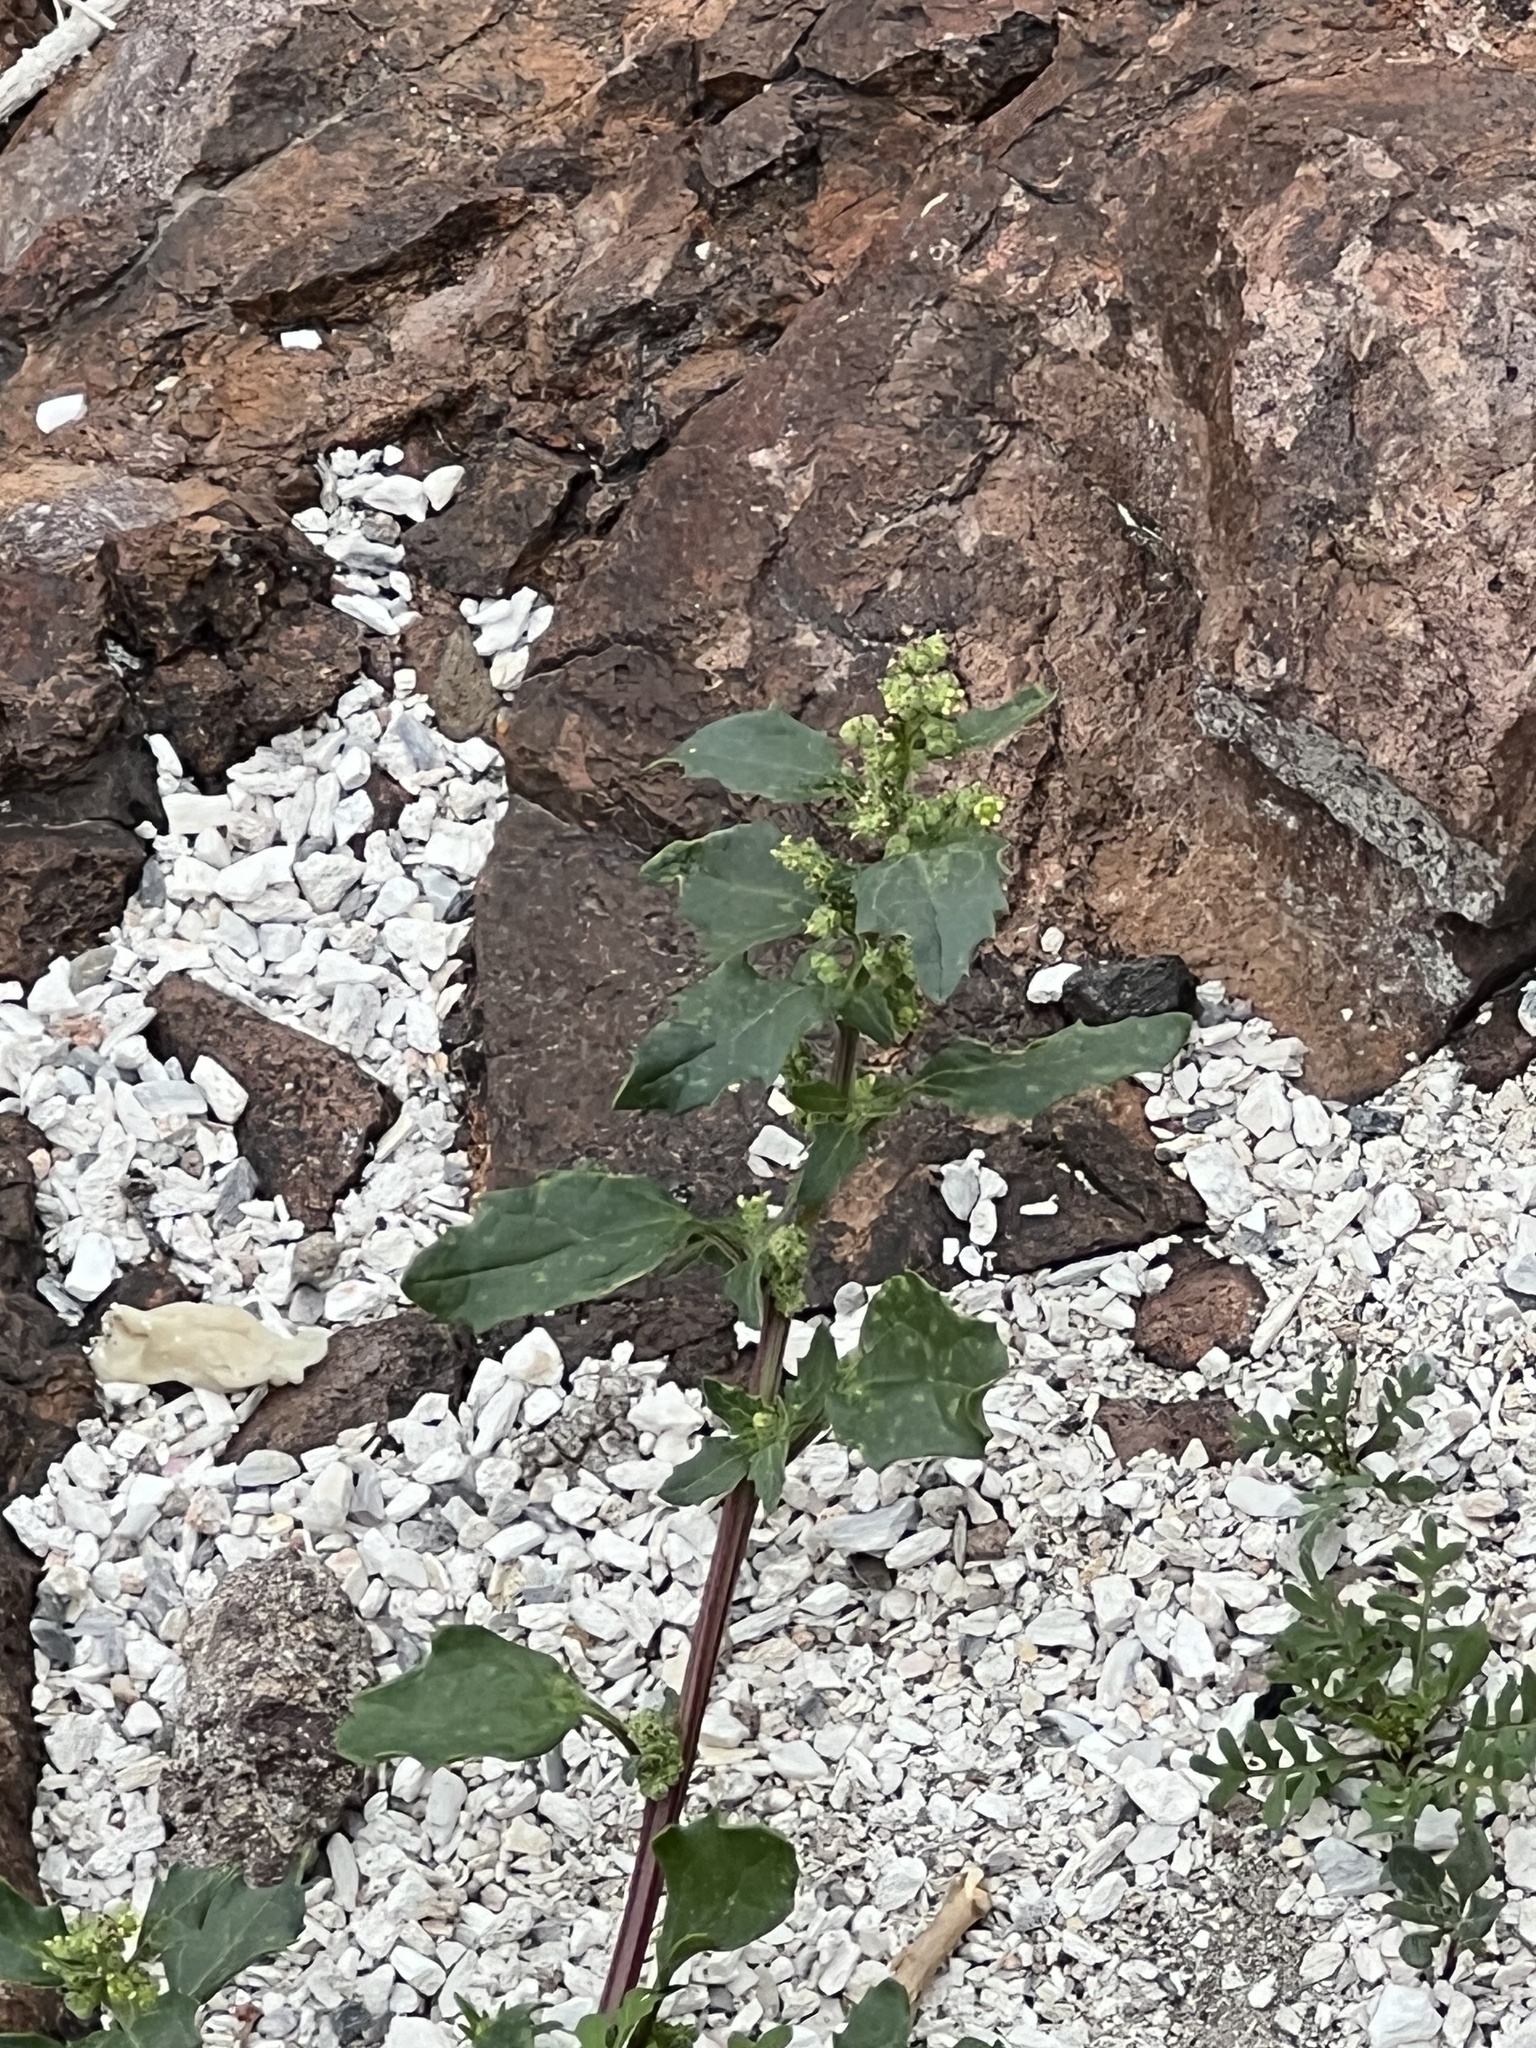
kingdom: Plantae
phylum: Tracheophyta
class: Magnoliopsida
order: Caryophyllales
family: Amaranthaceae
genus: Chenopodiastrum
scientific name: Chenopodiastrum murale
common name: Sowbane
